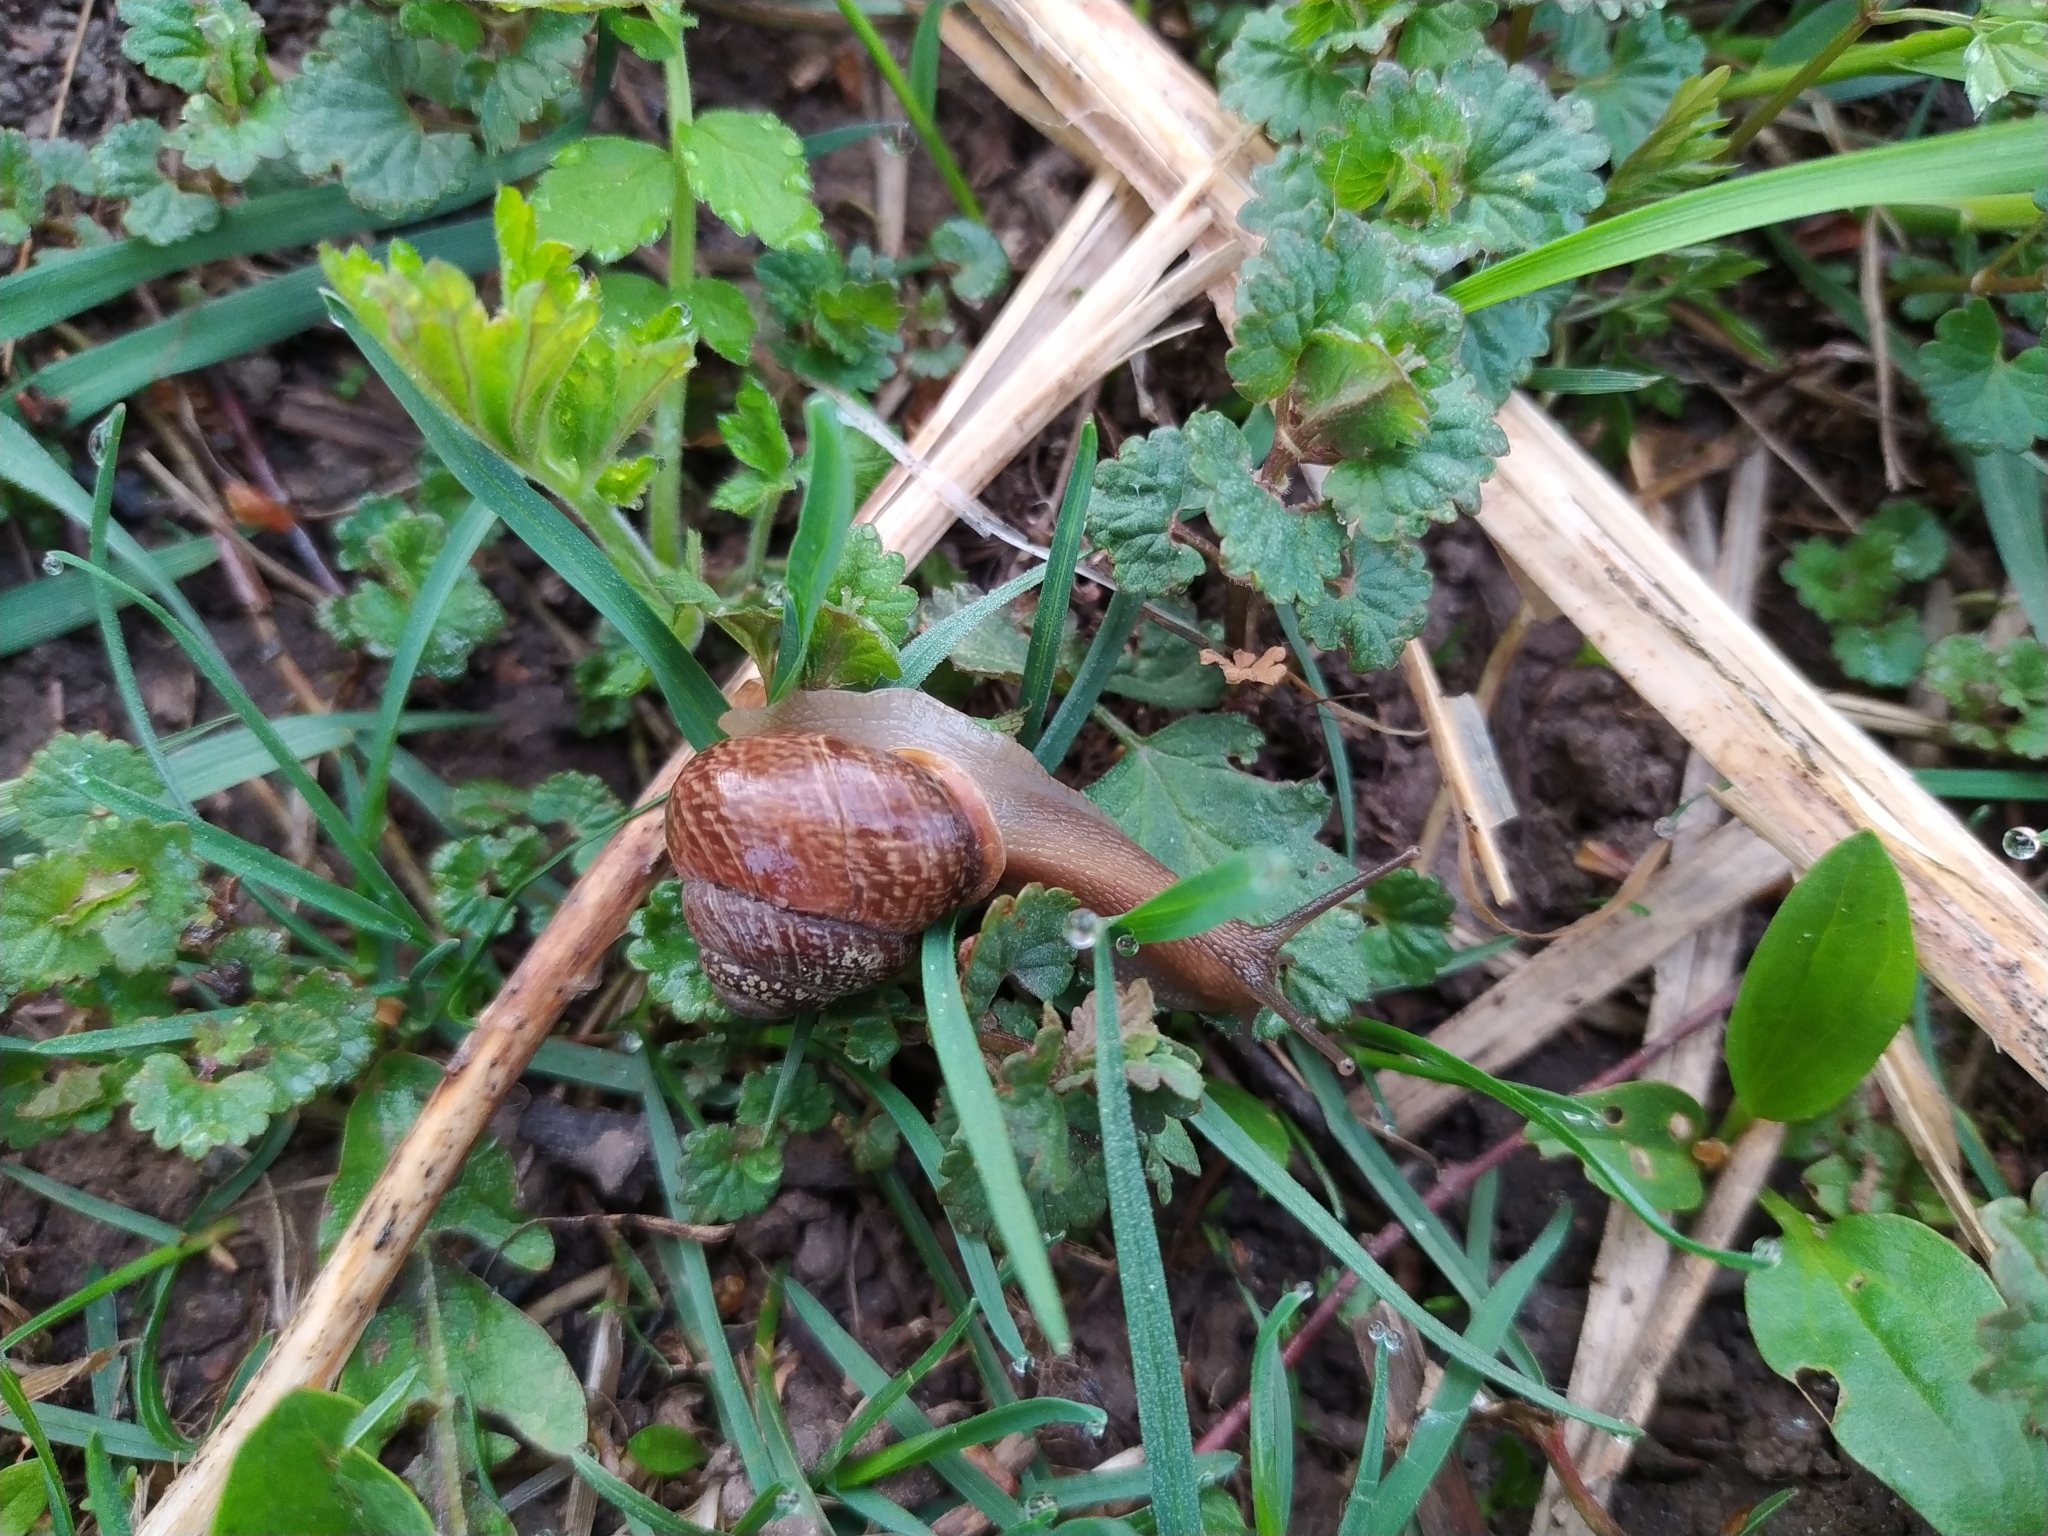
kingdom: Animalia
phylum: Mollusca
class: Gastropoda
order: Stylommatophora
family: Helicidae
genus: Arianta
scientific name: Arianta arbustorum
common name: Copse snail
